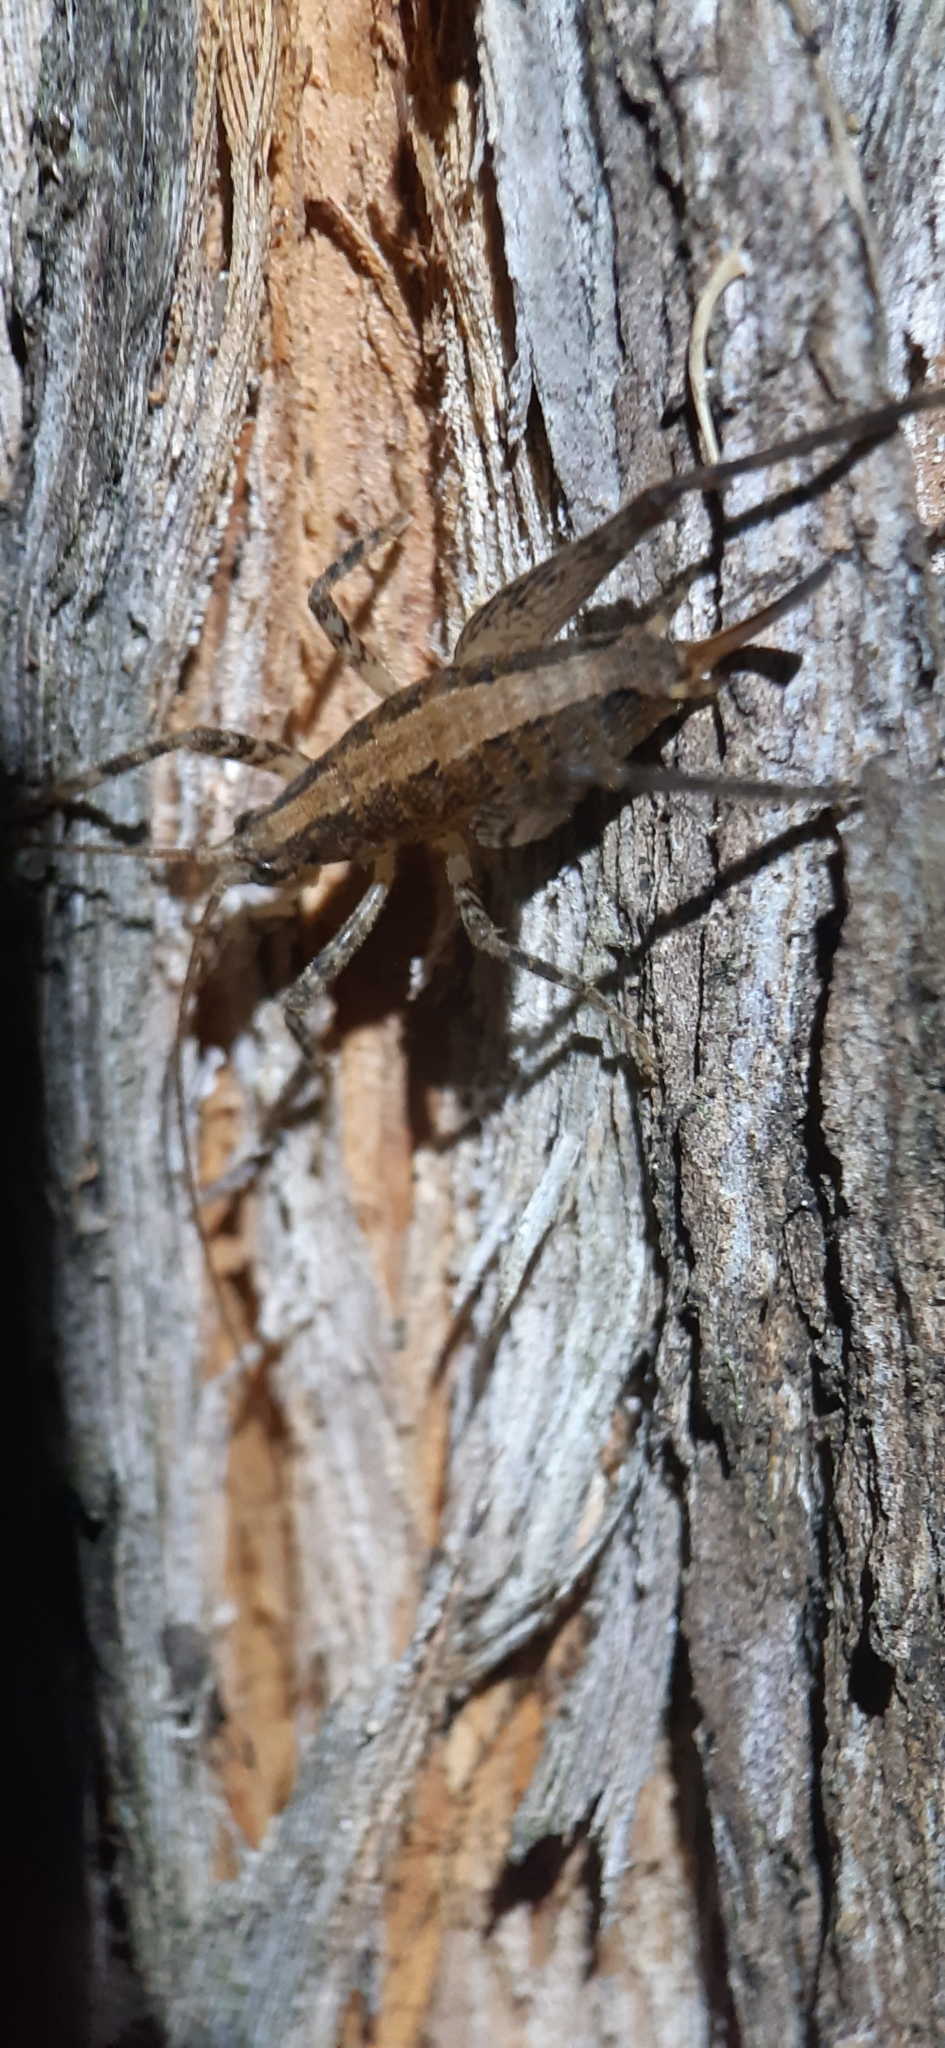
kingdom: Animalia
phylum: Arthropoda
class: Insecta
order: Orthoptera
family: Rhaphidophoridae
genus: Isoplectron
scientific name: Isoplectron armatum
